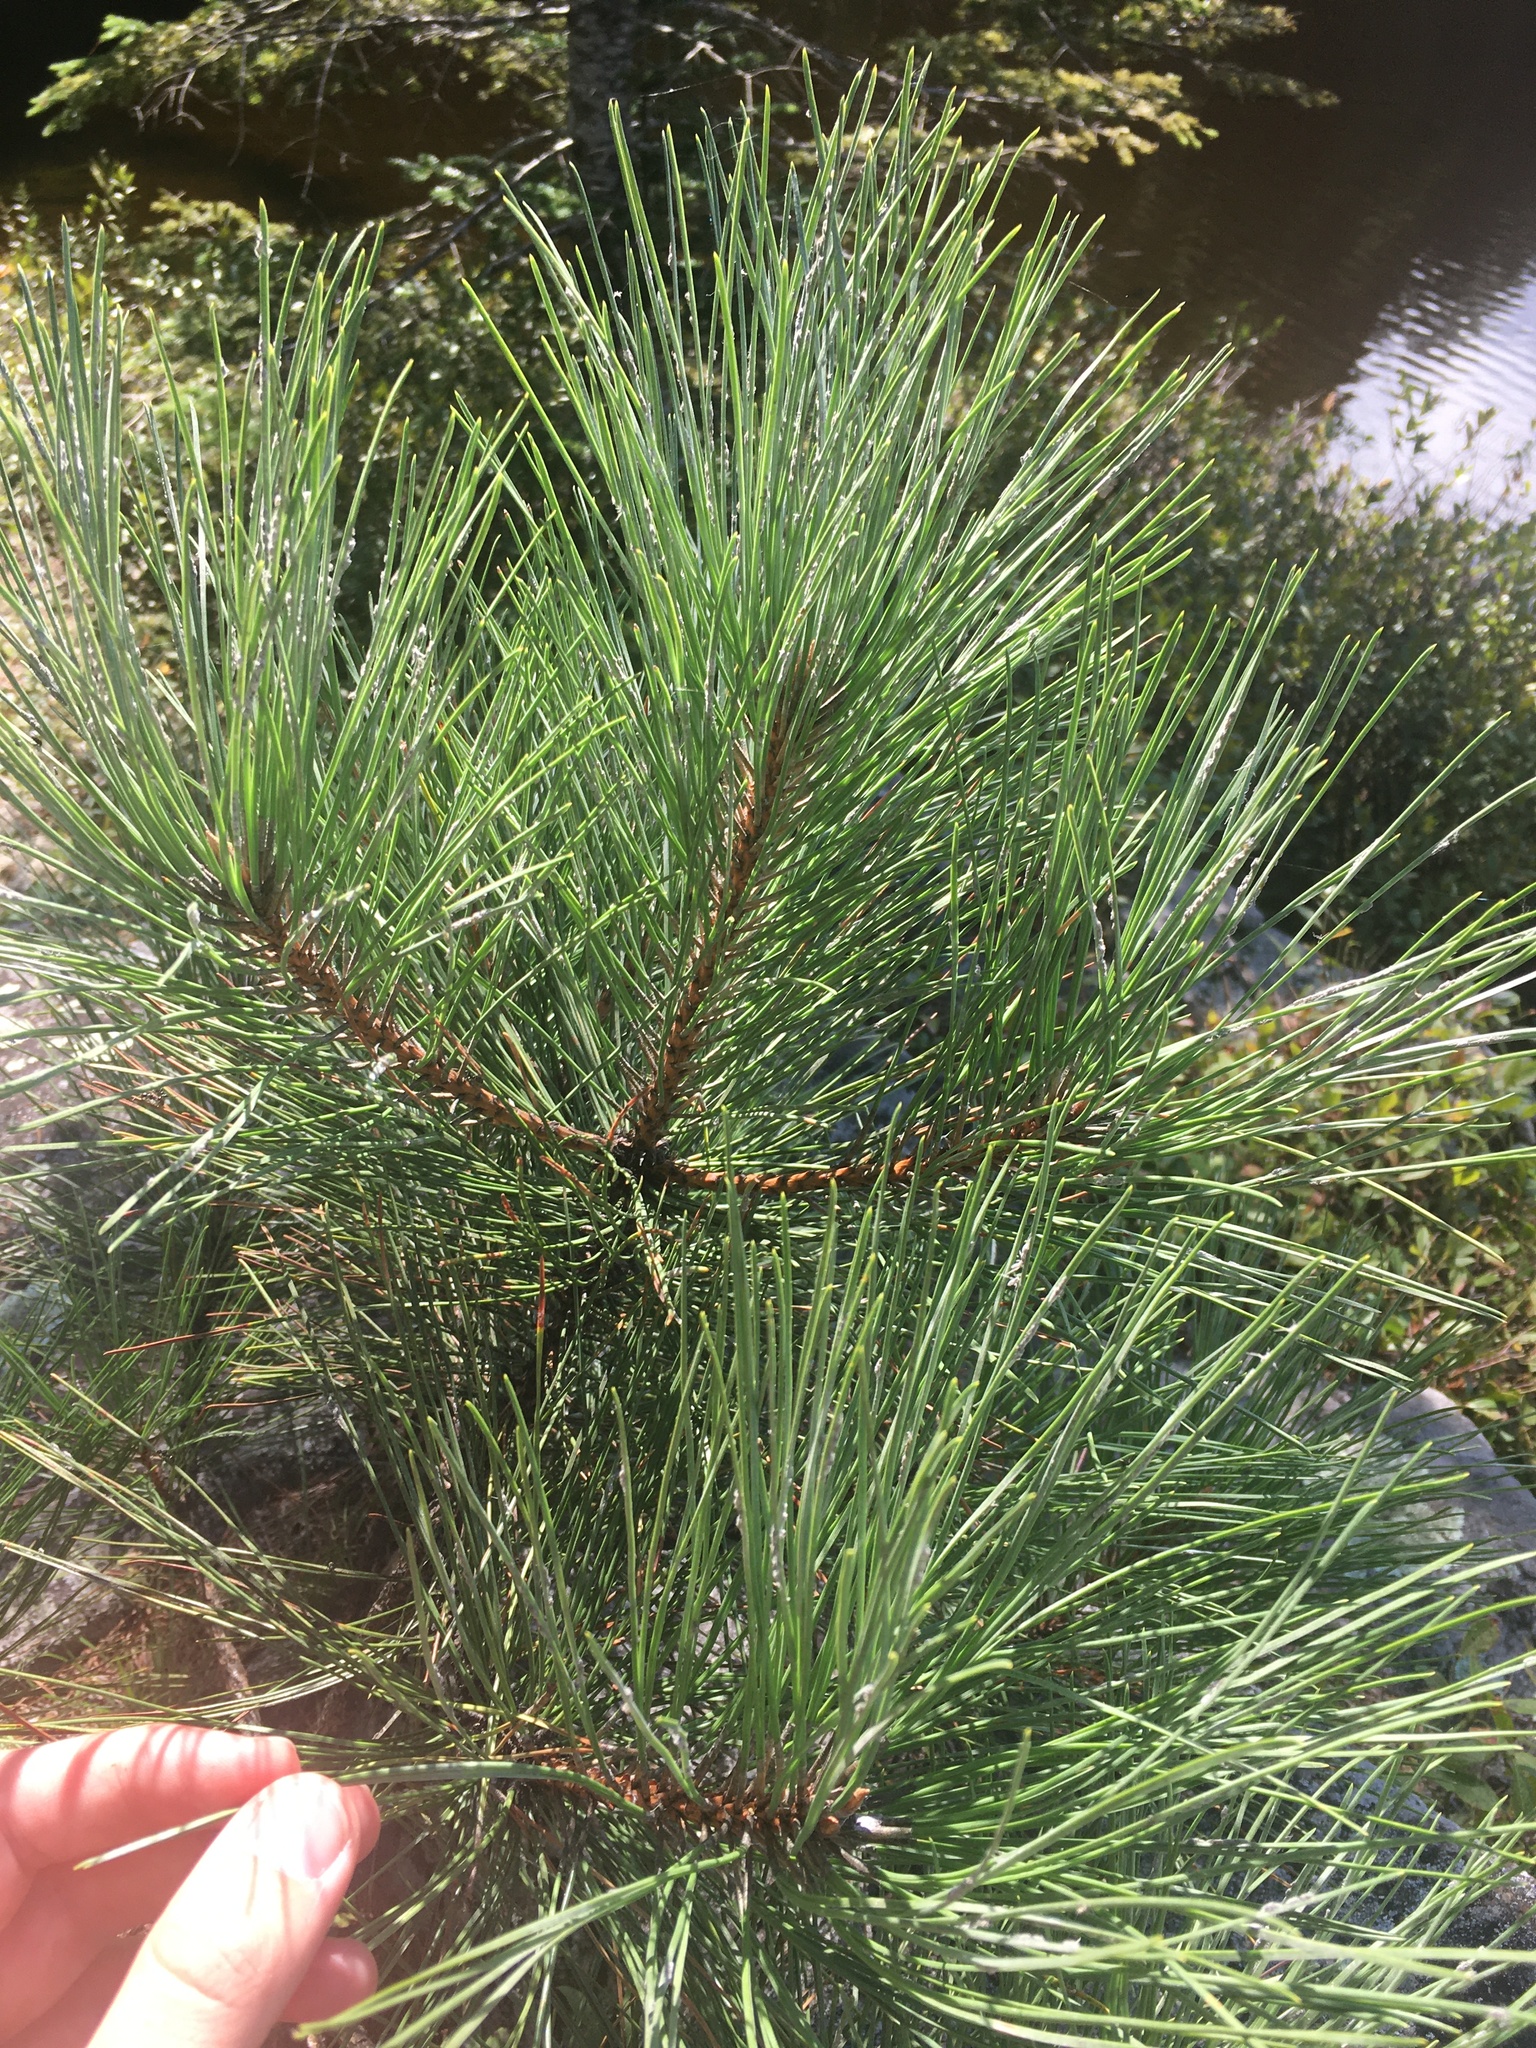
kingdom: Plantae
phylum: Tracheophyta
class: Pinopsida
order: Pinales
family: Pinaceae
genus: Pinus
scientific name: Pinus resinosa
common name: Norway pine
